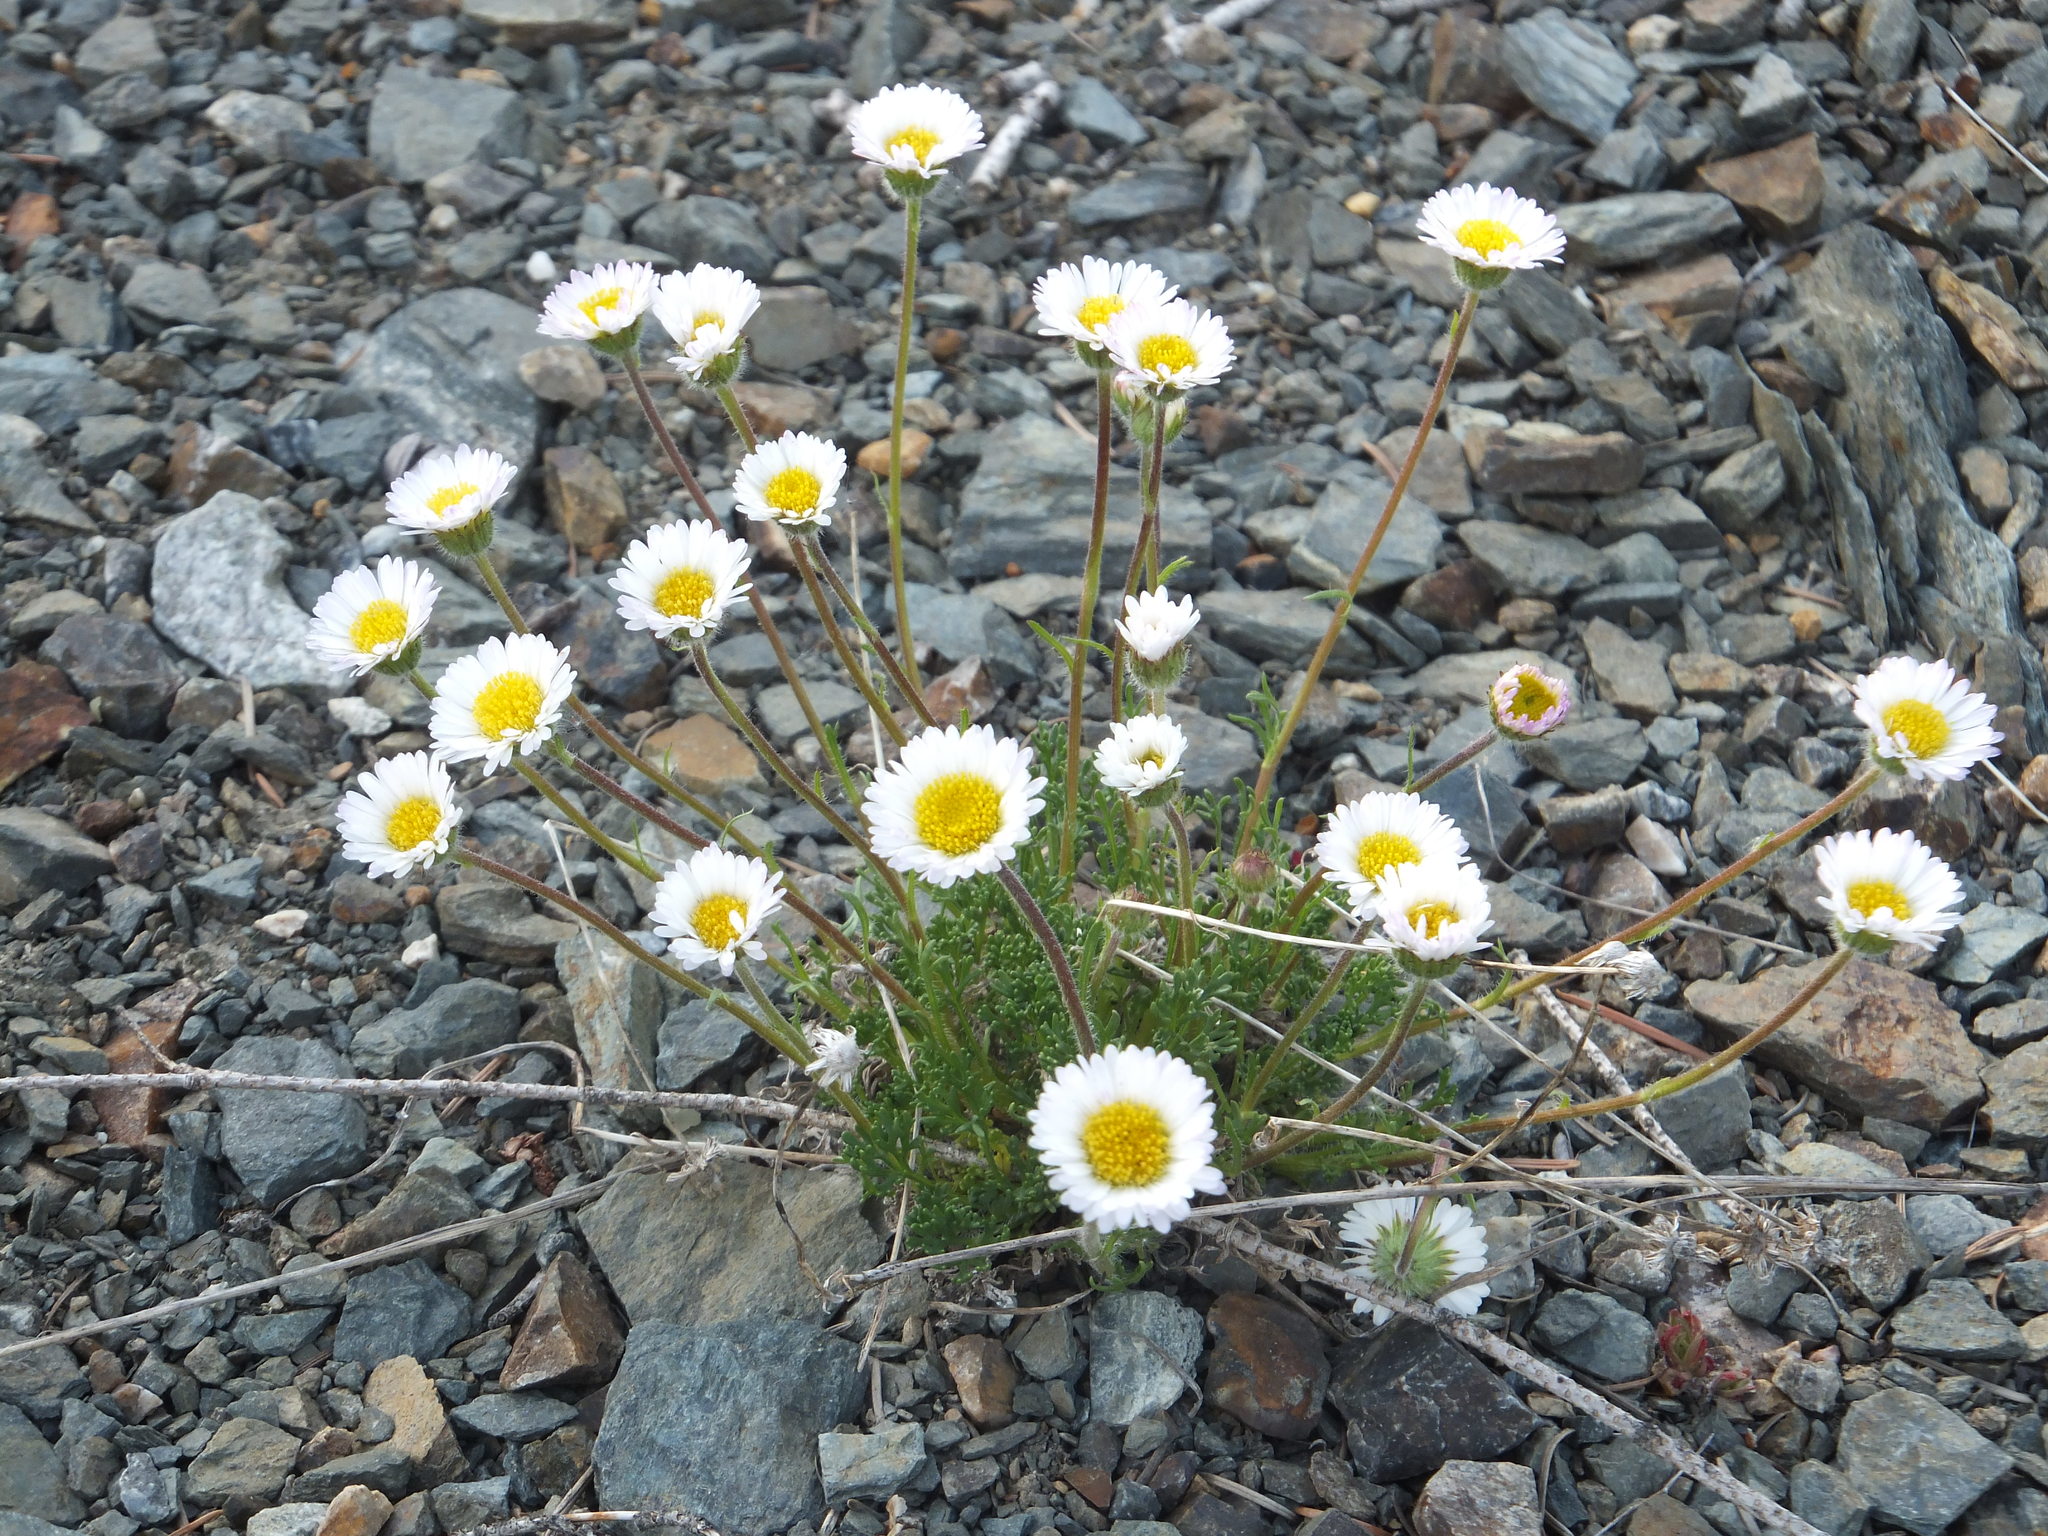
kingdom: Plantae
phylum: Tracheophyta
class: Magnoliopsida
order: Asterales
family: Asteraceae
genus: Erigeron
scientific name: Erigeron compositus
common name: Dwarf mountain fleabane
